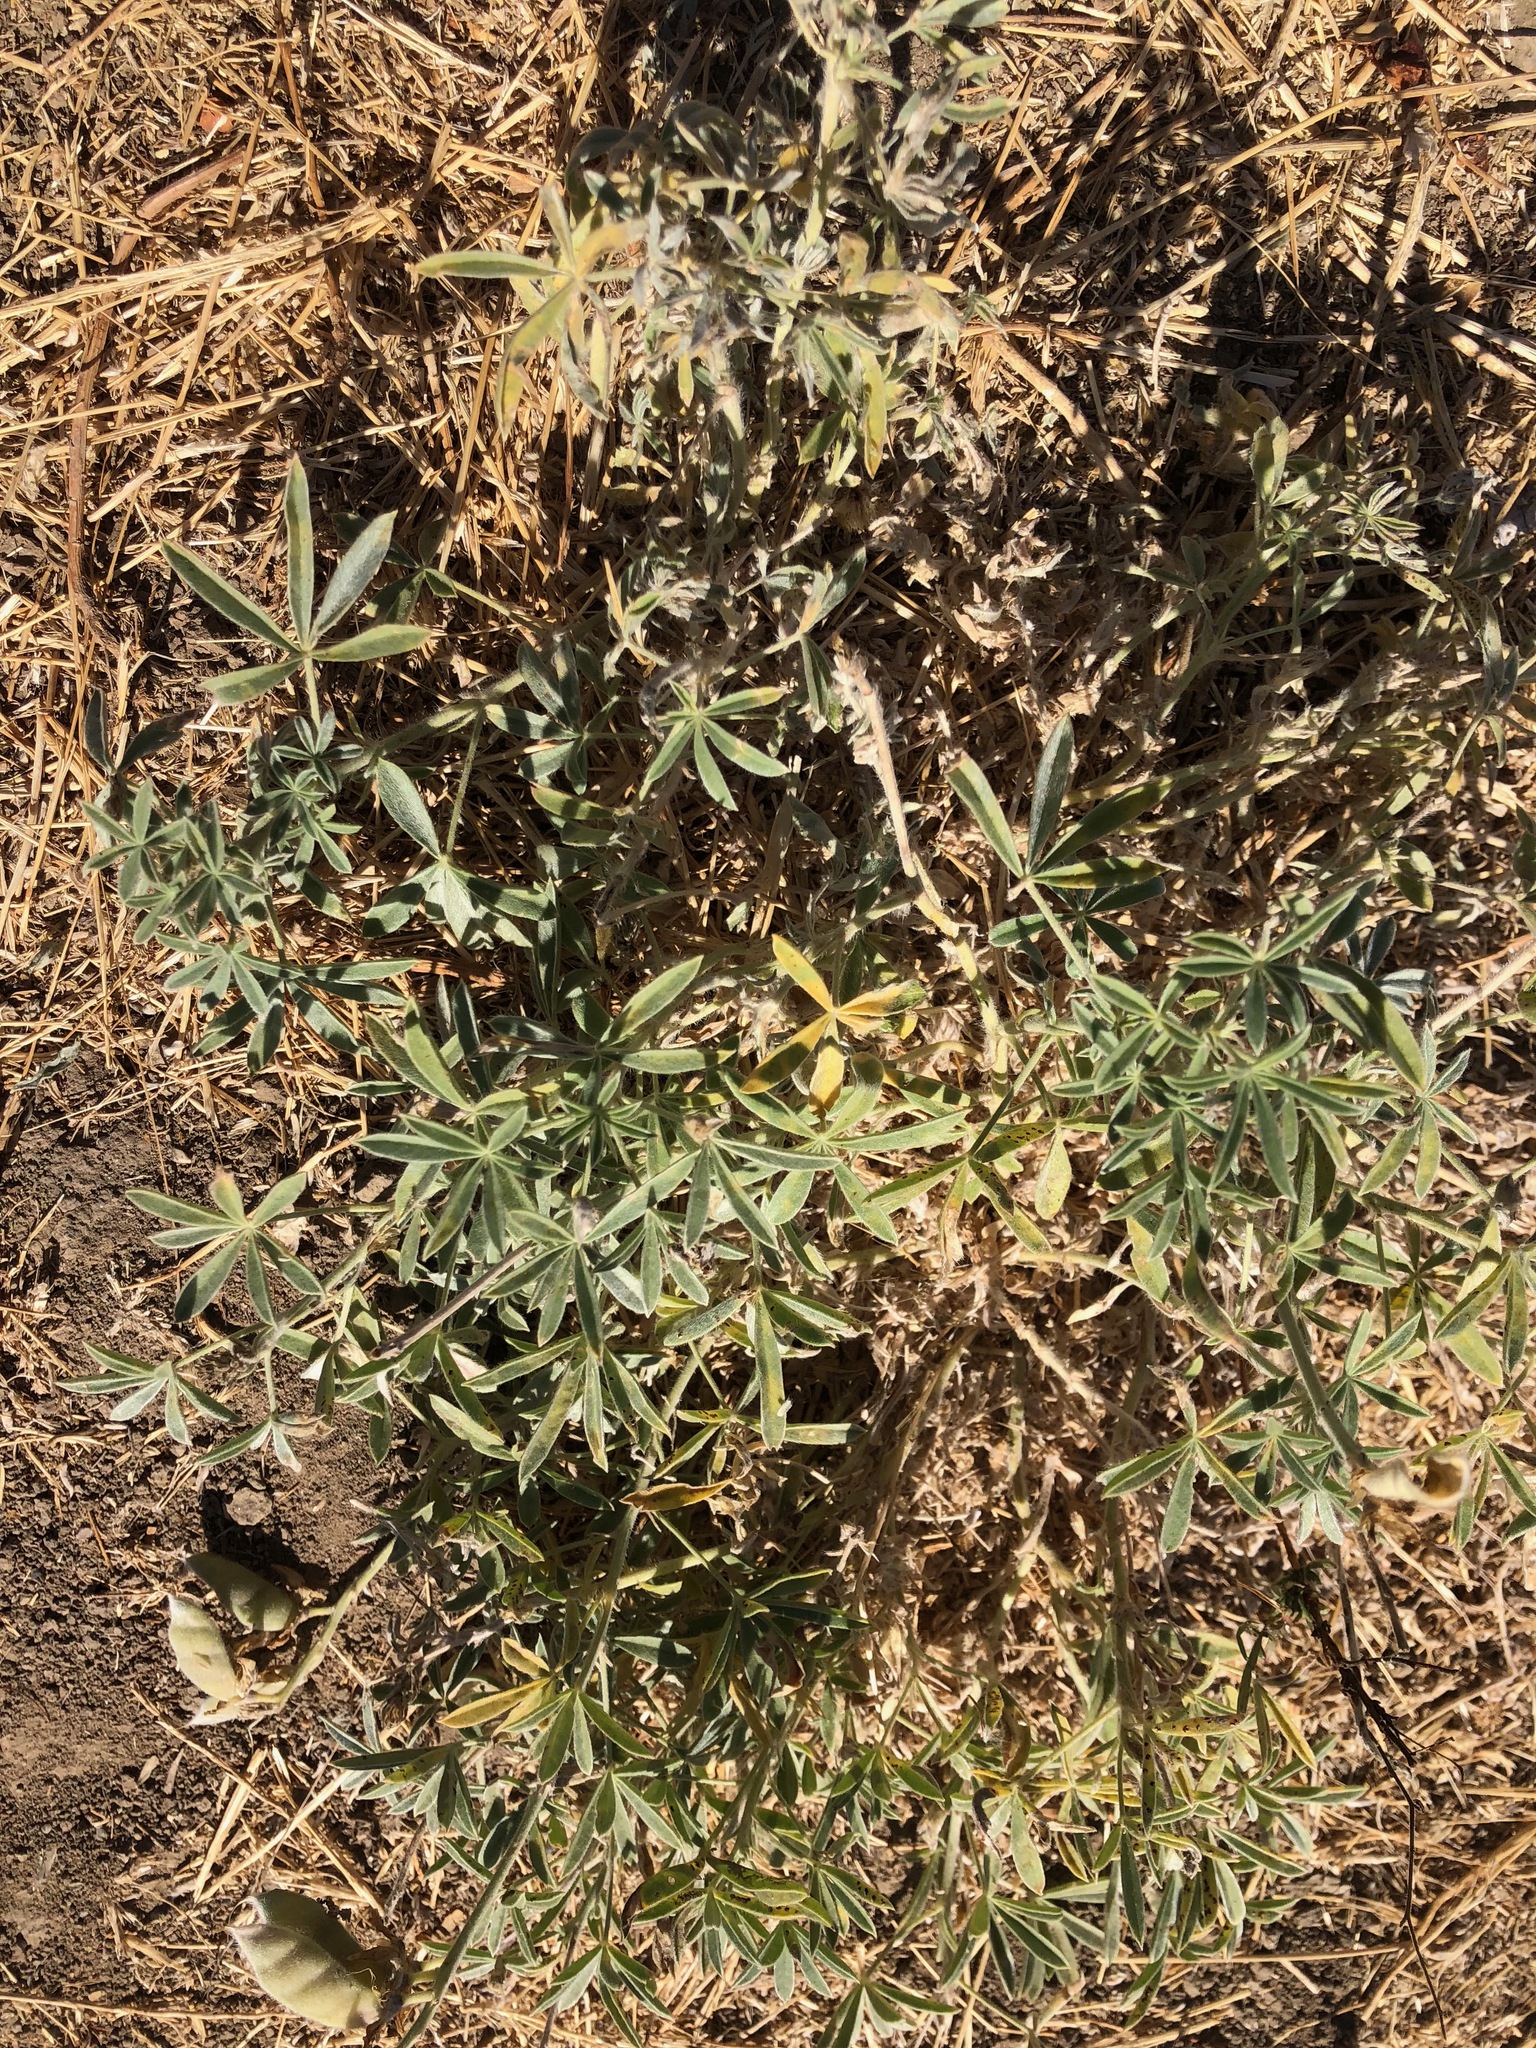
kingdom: Plantae
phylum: Tracheophyta
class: Magnoliopsida
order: Fabales
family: Fabaceae
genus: Lupinus
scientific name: Lupinus formosus
